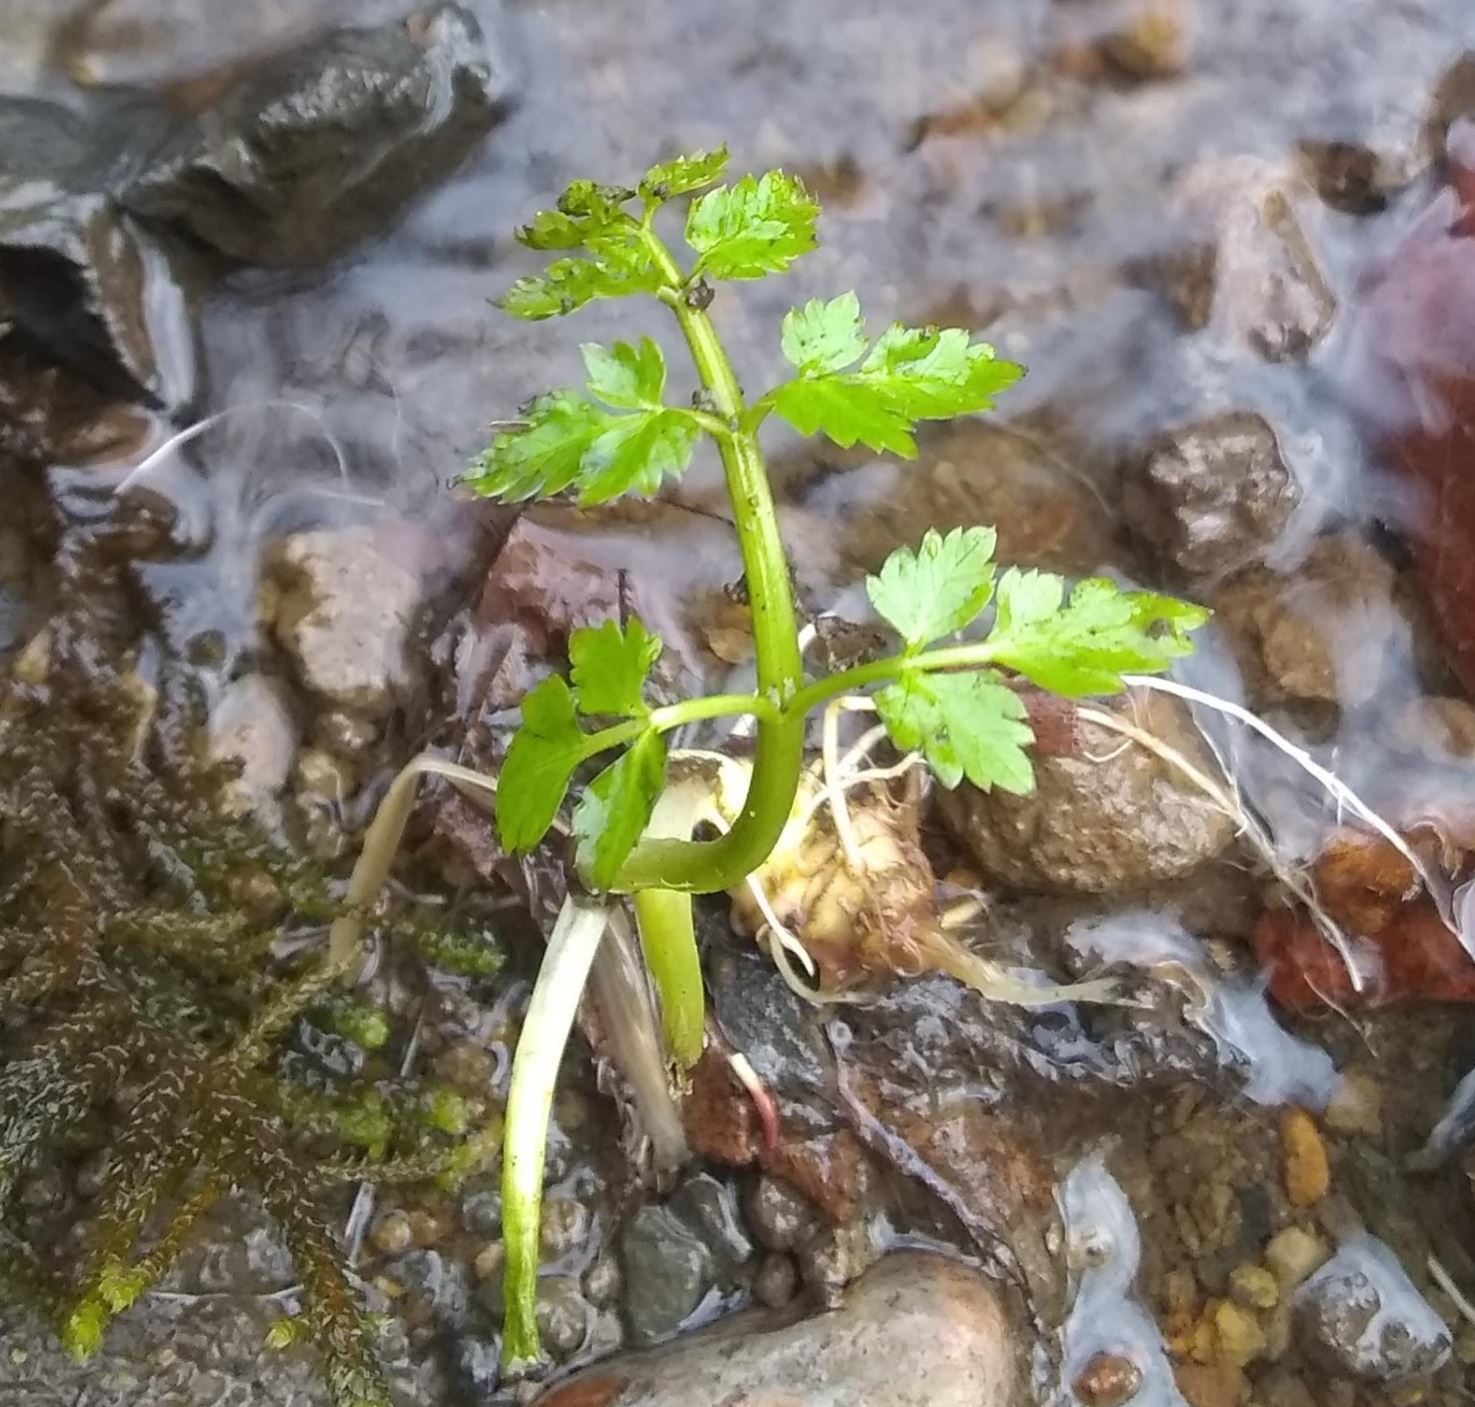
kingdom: Plantae
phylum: Tracheophyta
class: Magnoliopsida
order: Apiales
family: Apiaceae
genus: Oenanthe
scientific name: Oenanthe sarmentosa
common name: American water-parsley
